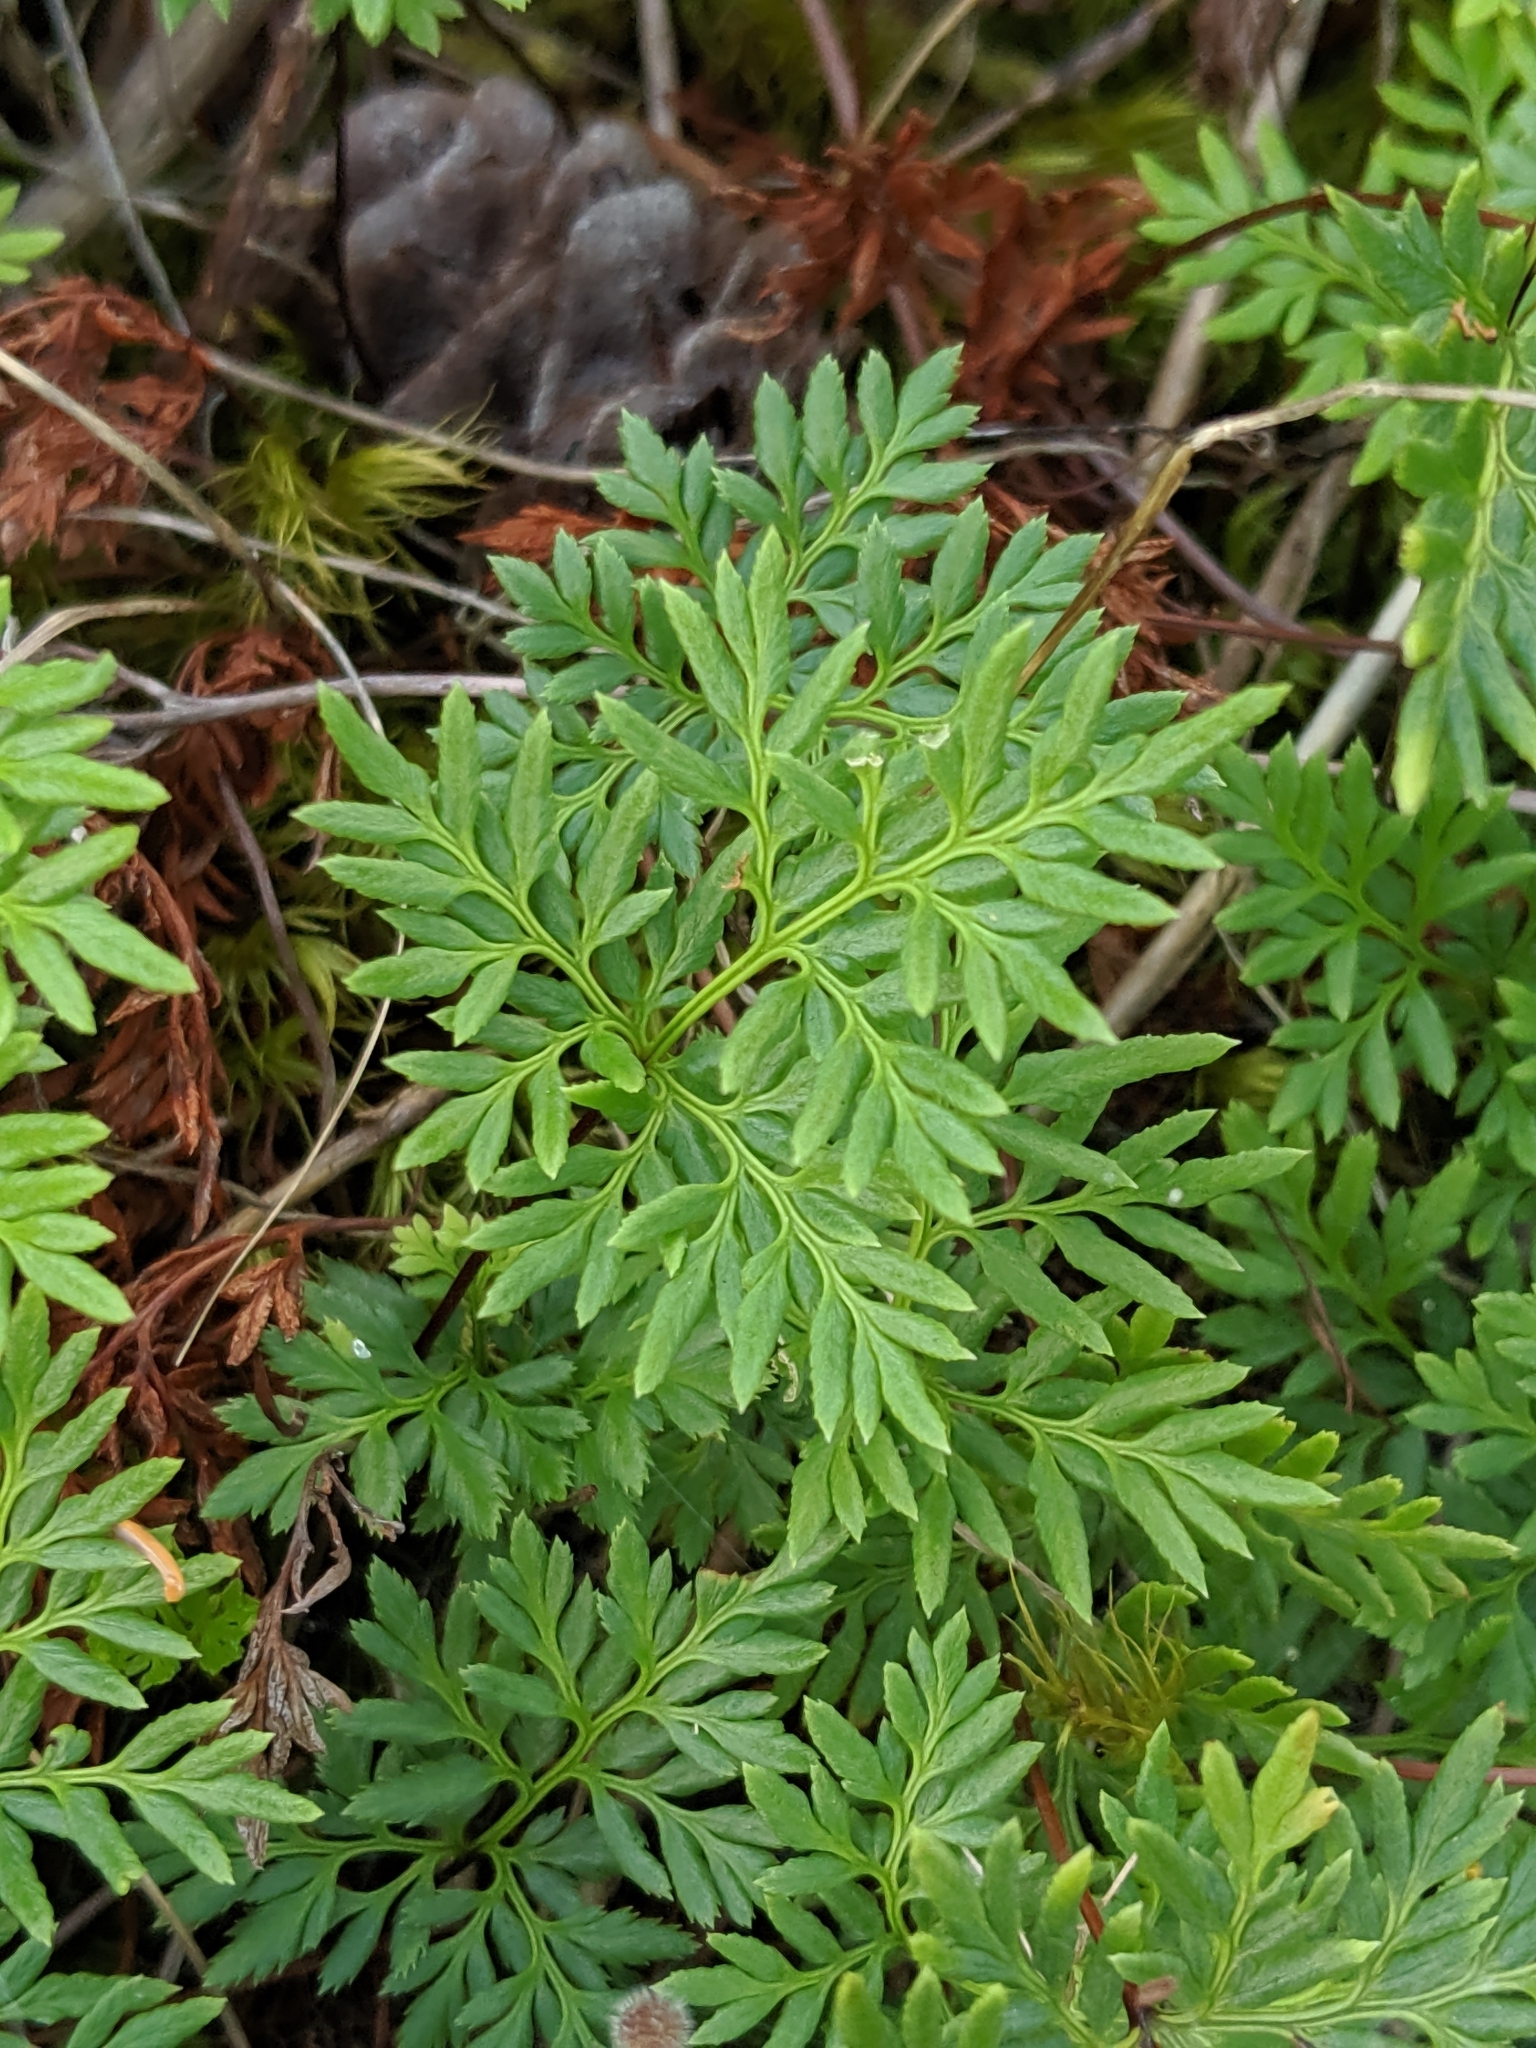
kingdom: Plantae
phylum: Tracheophyta
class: Polypodiopsida
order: Polypodiales
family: Pteridaceae
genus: Aspidotis
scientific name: Aspidotis densa
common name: Indian's dream
